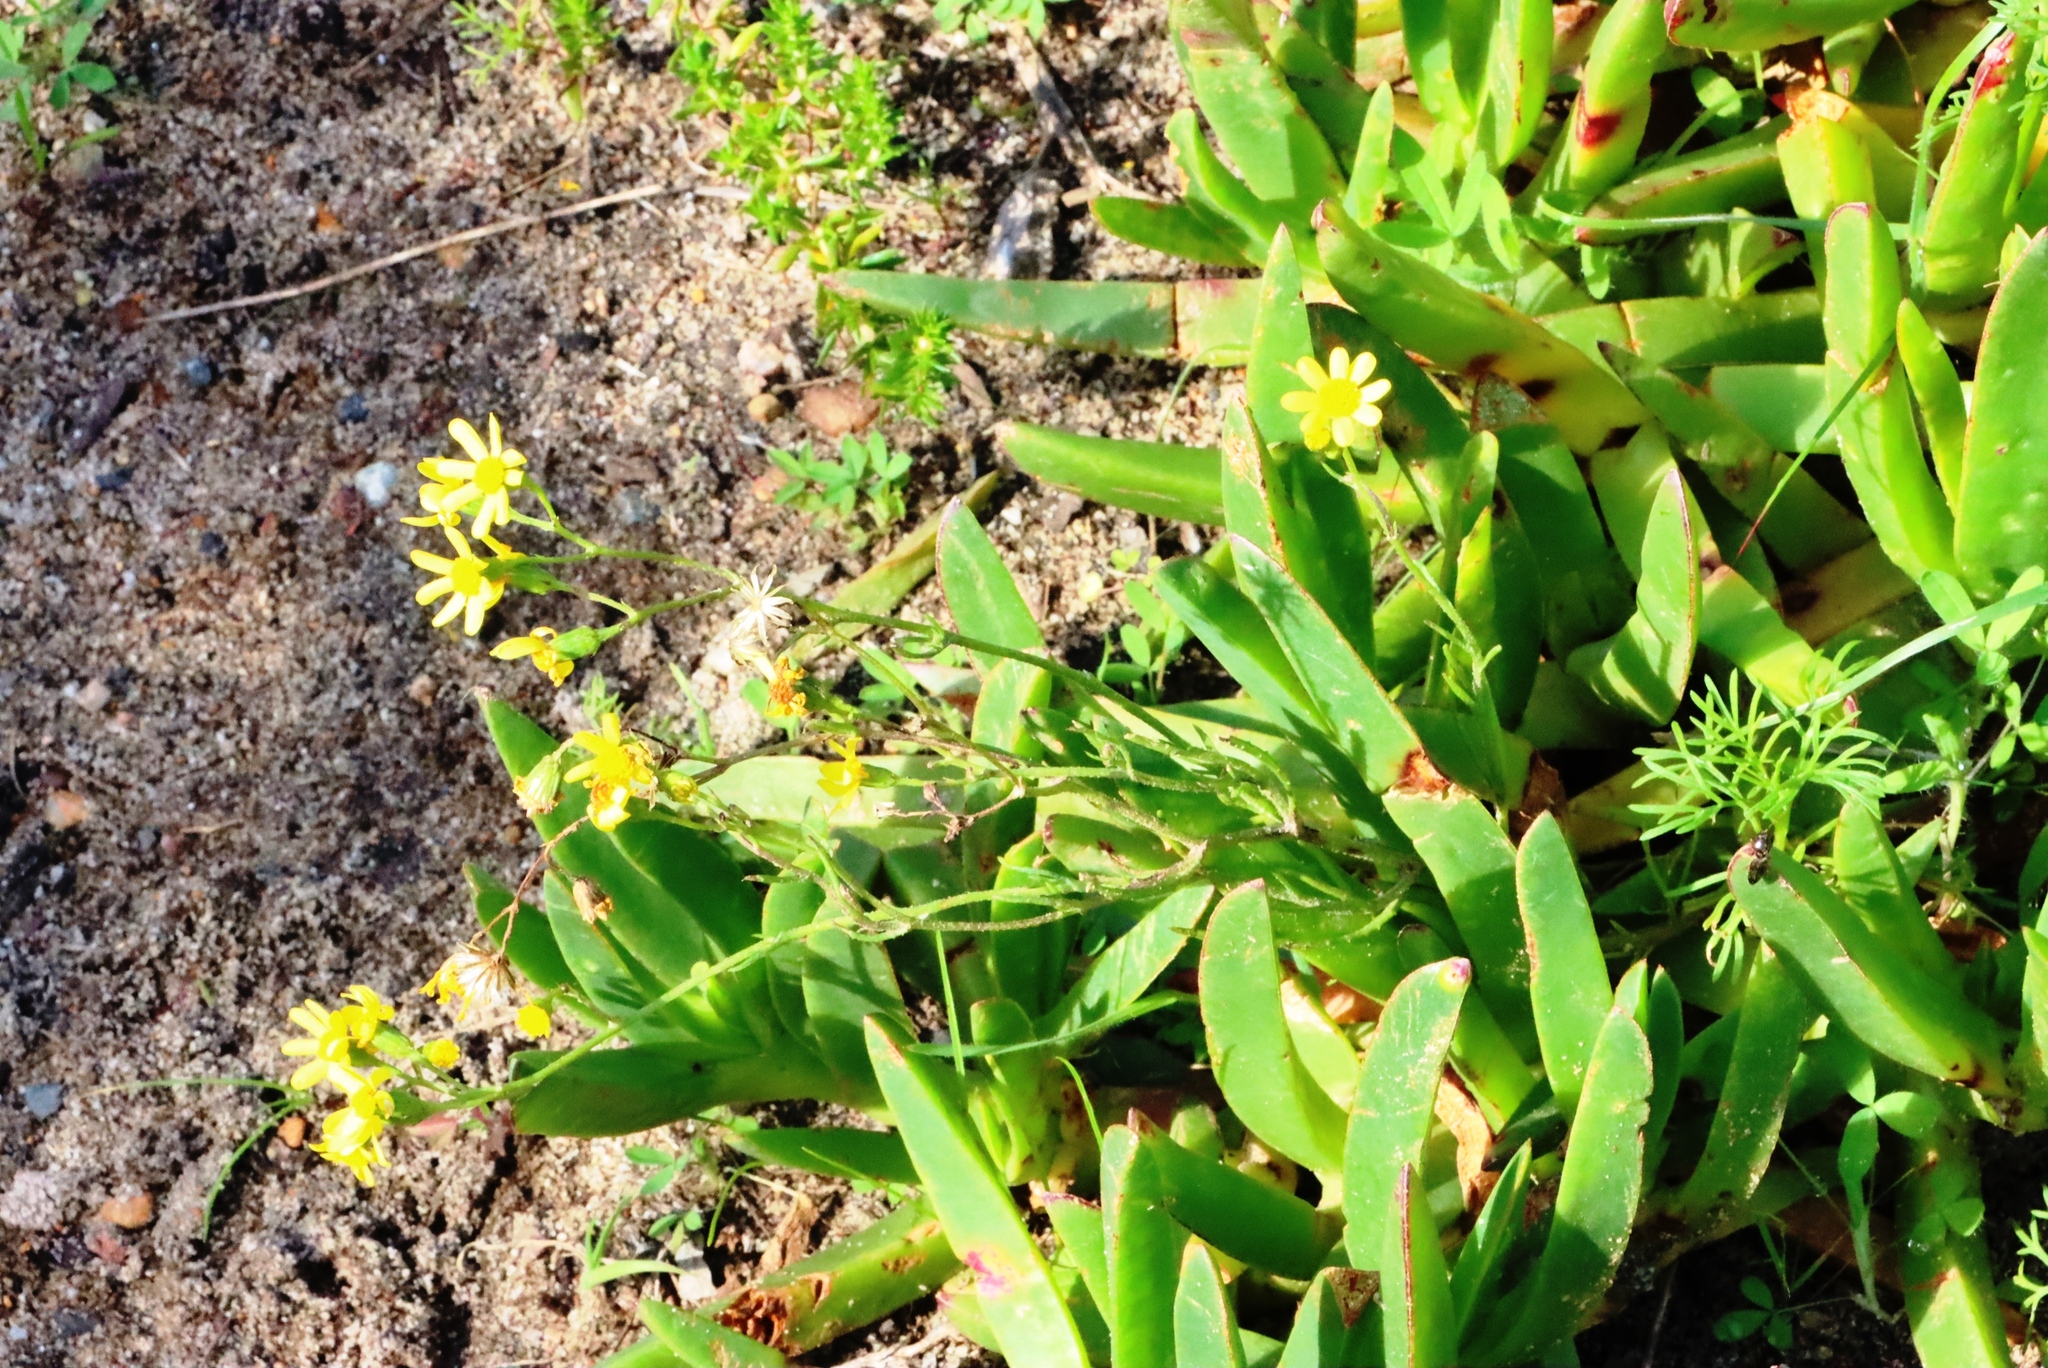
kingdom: Plantae
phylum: Tracheophyta
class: Magnoliopsida
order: Caryophyllales
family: Aizoaceae
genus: Carpobrotus
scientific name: Carpobrotus edulis
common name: Hottentot-fig
